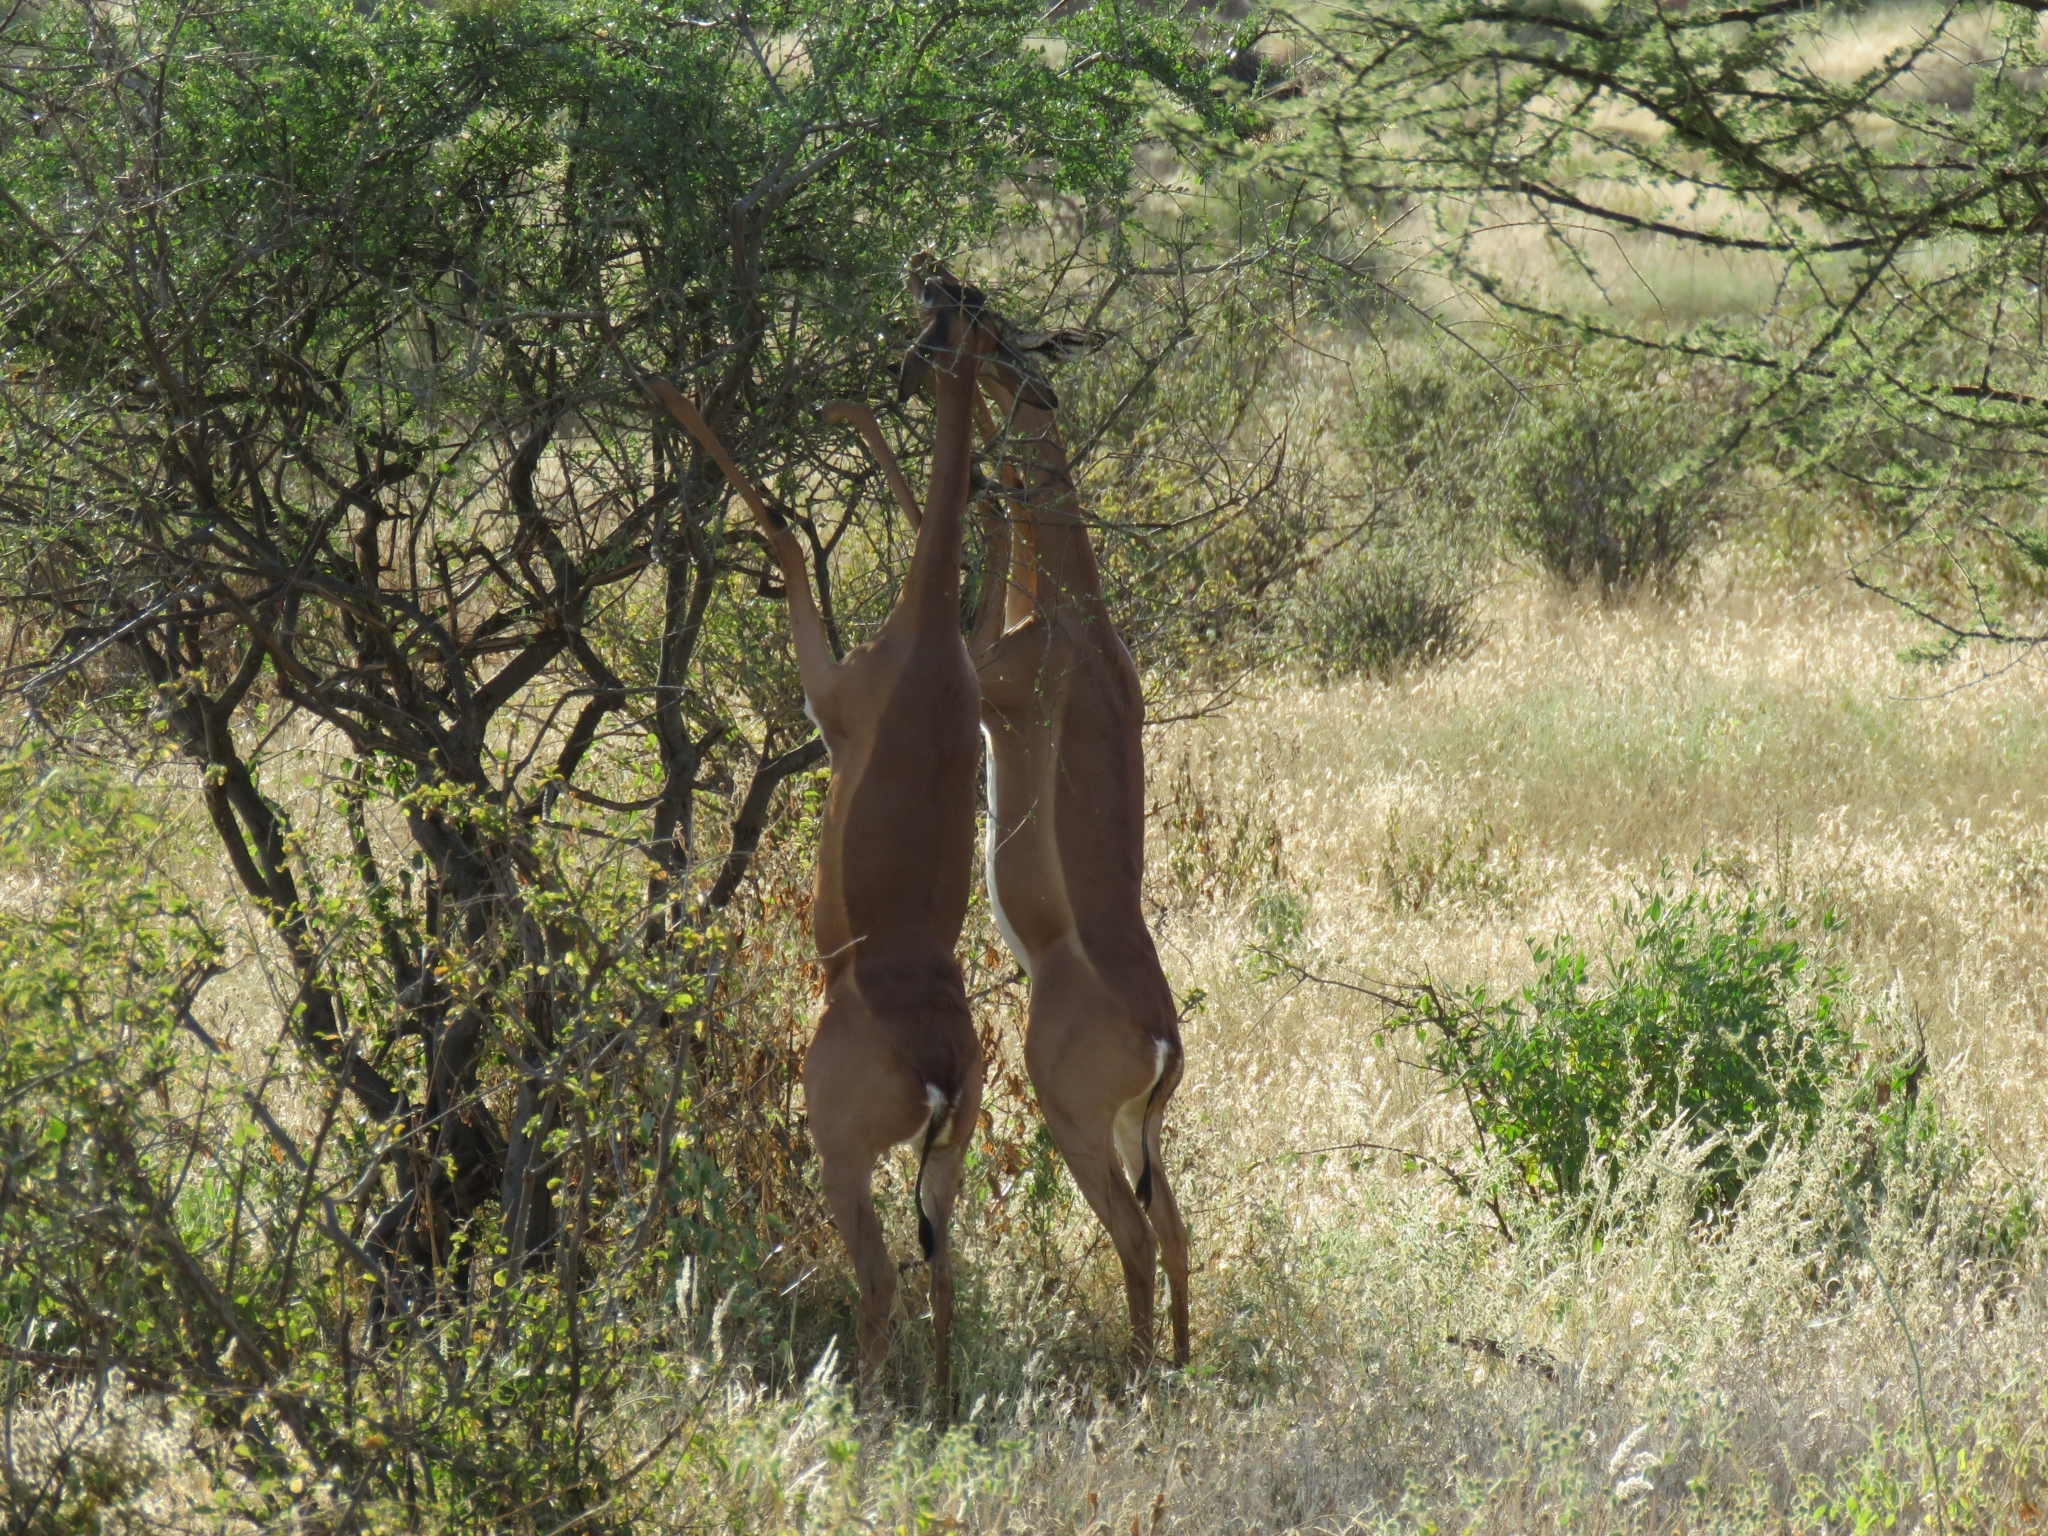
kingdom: Animalia
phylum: Chordata
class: Mammalia
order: Artiodactyla
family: Bovidae
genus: Litocranius
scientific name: Litocranius walleri
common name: Gerenuk
